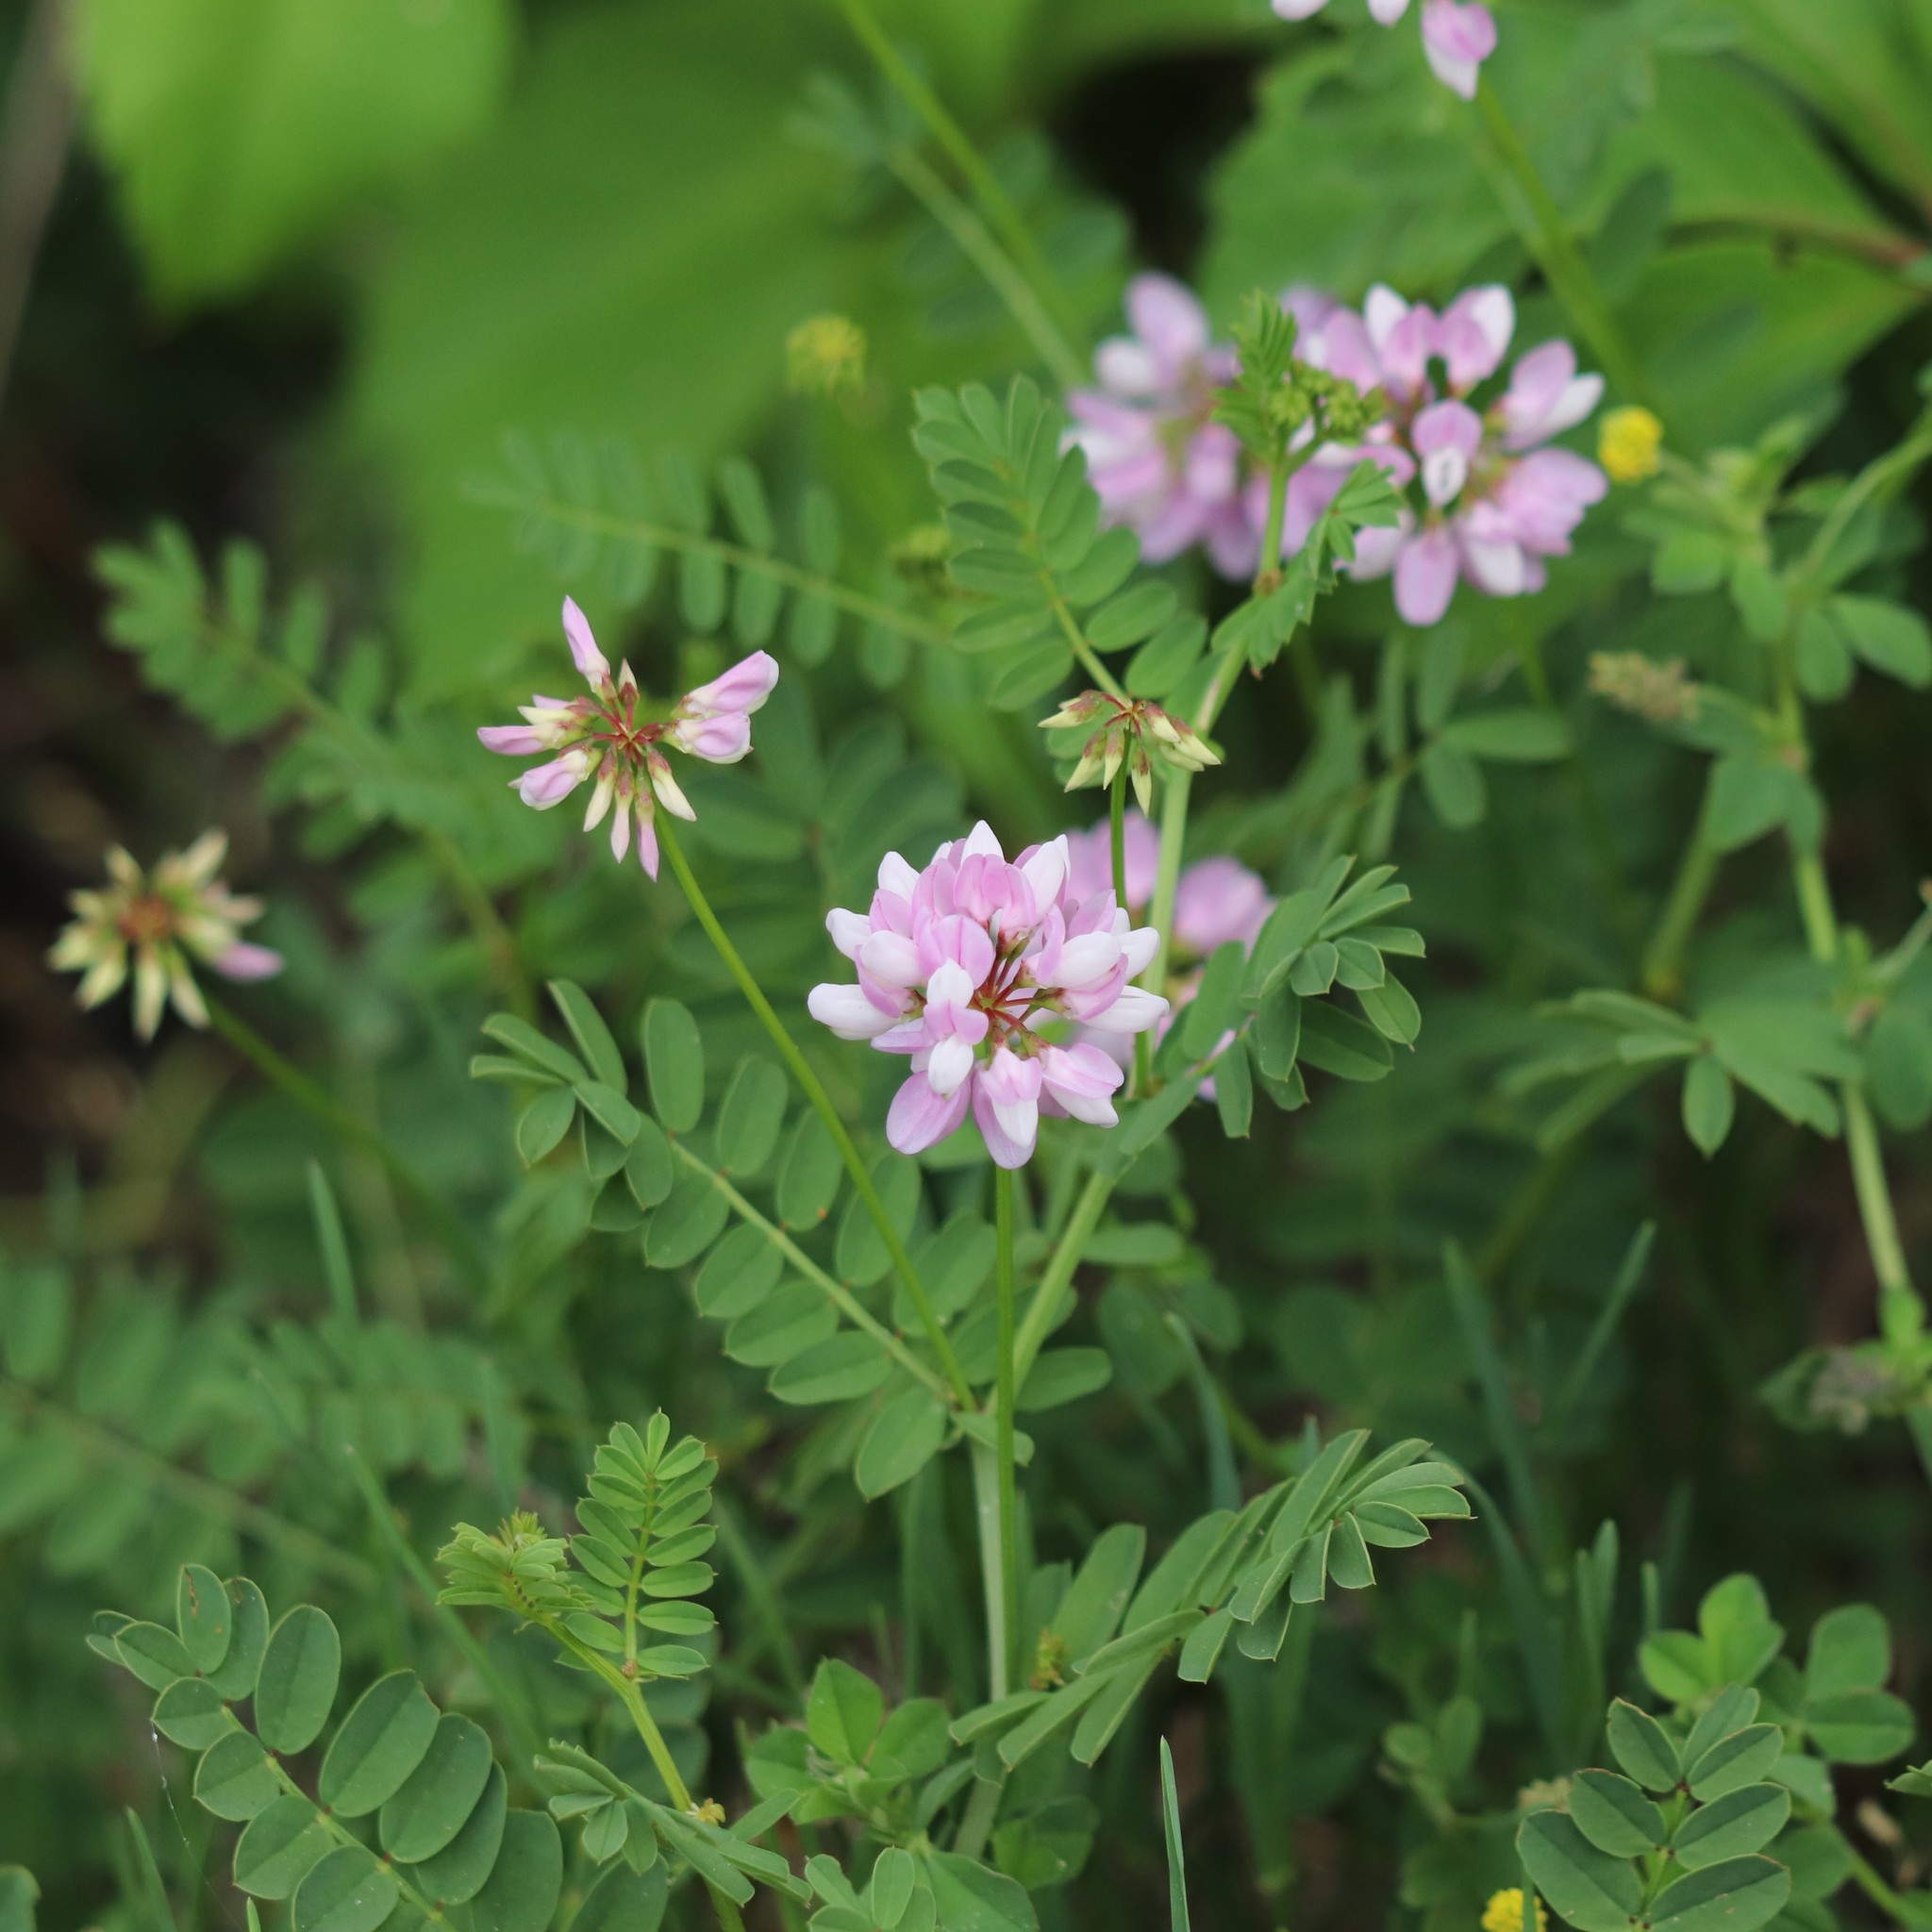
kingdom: Plantae
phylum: Tracheophyta
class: Magnoliopsida
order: Fabales
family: Fabaceae
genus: Coronilla
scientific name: Coronilla varia
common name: Crownvetch
